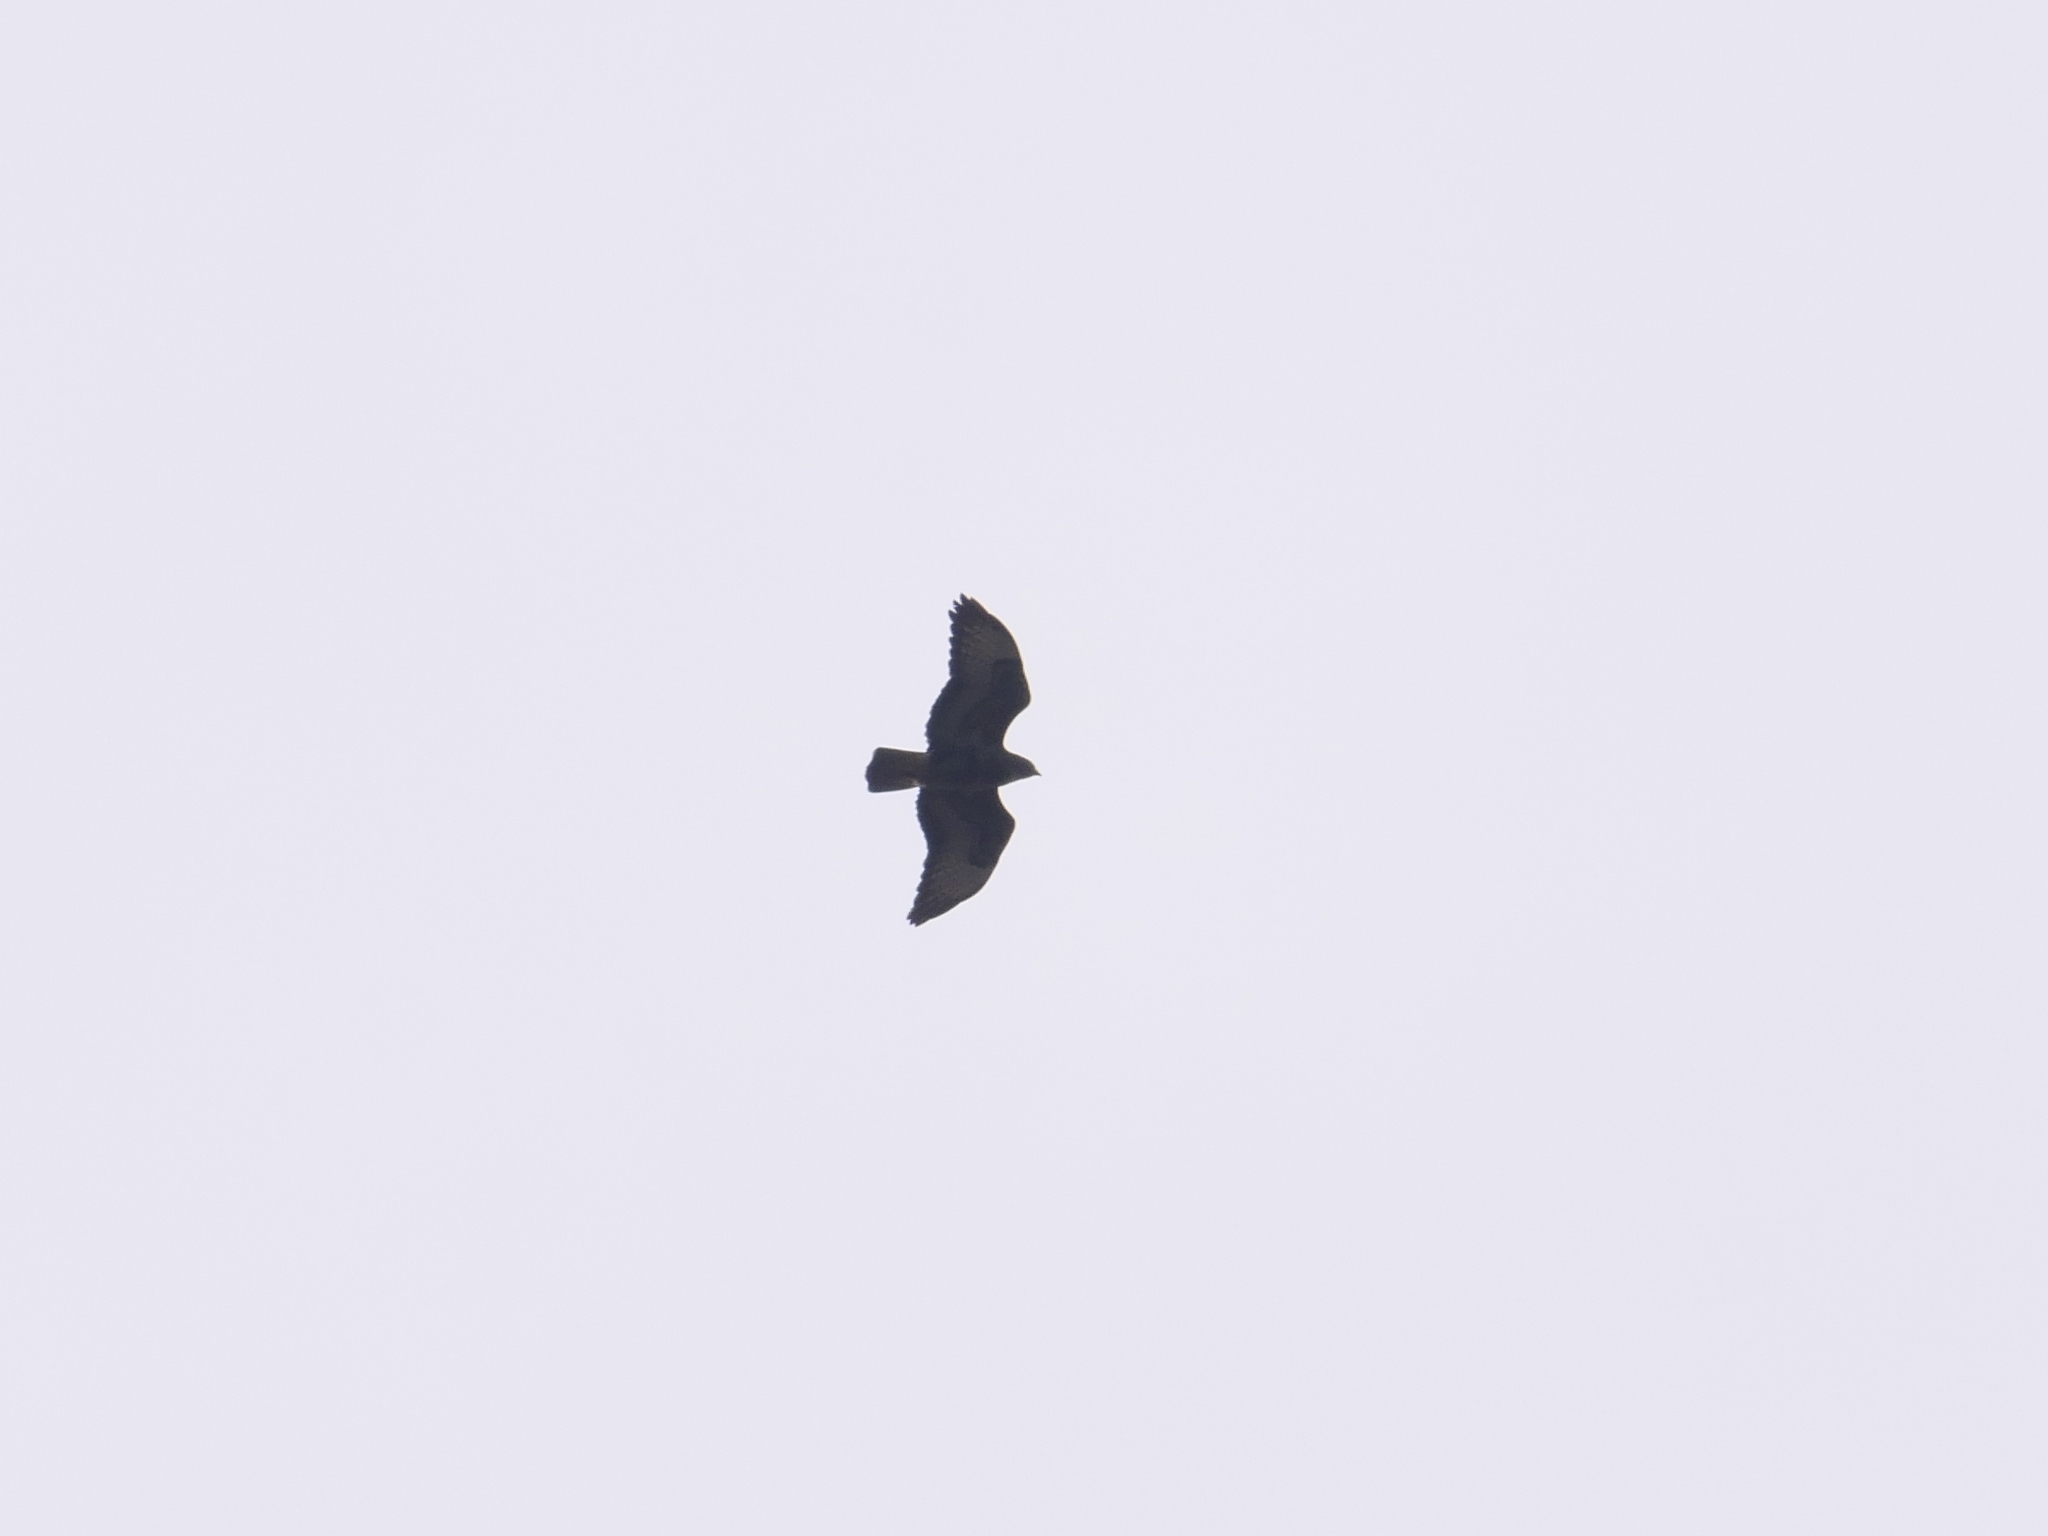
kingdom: Animalia
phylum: Chordata
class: Aves
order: Accipitriformes
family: Accipitridae
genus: Buteo
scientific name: Buteo buteo
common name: Common buzzard
